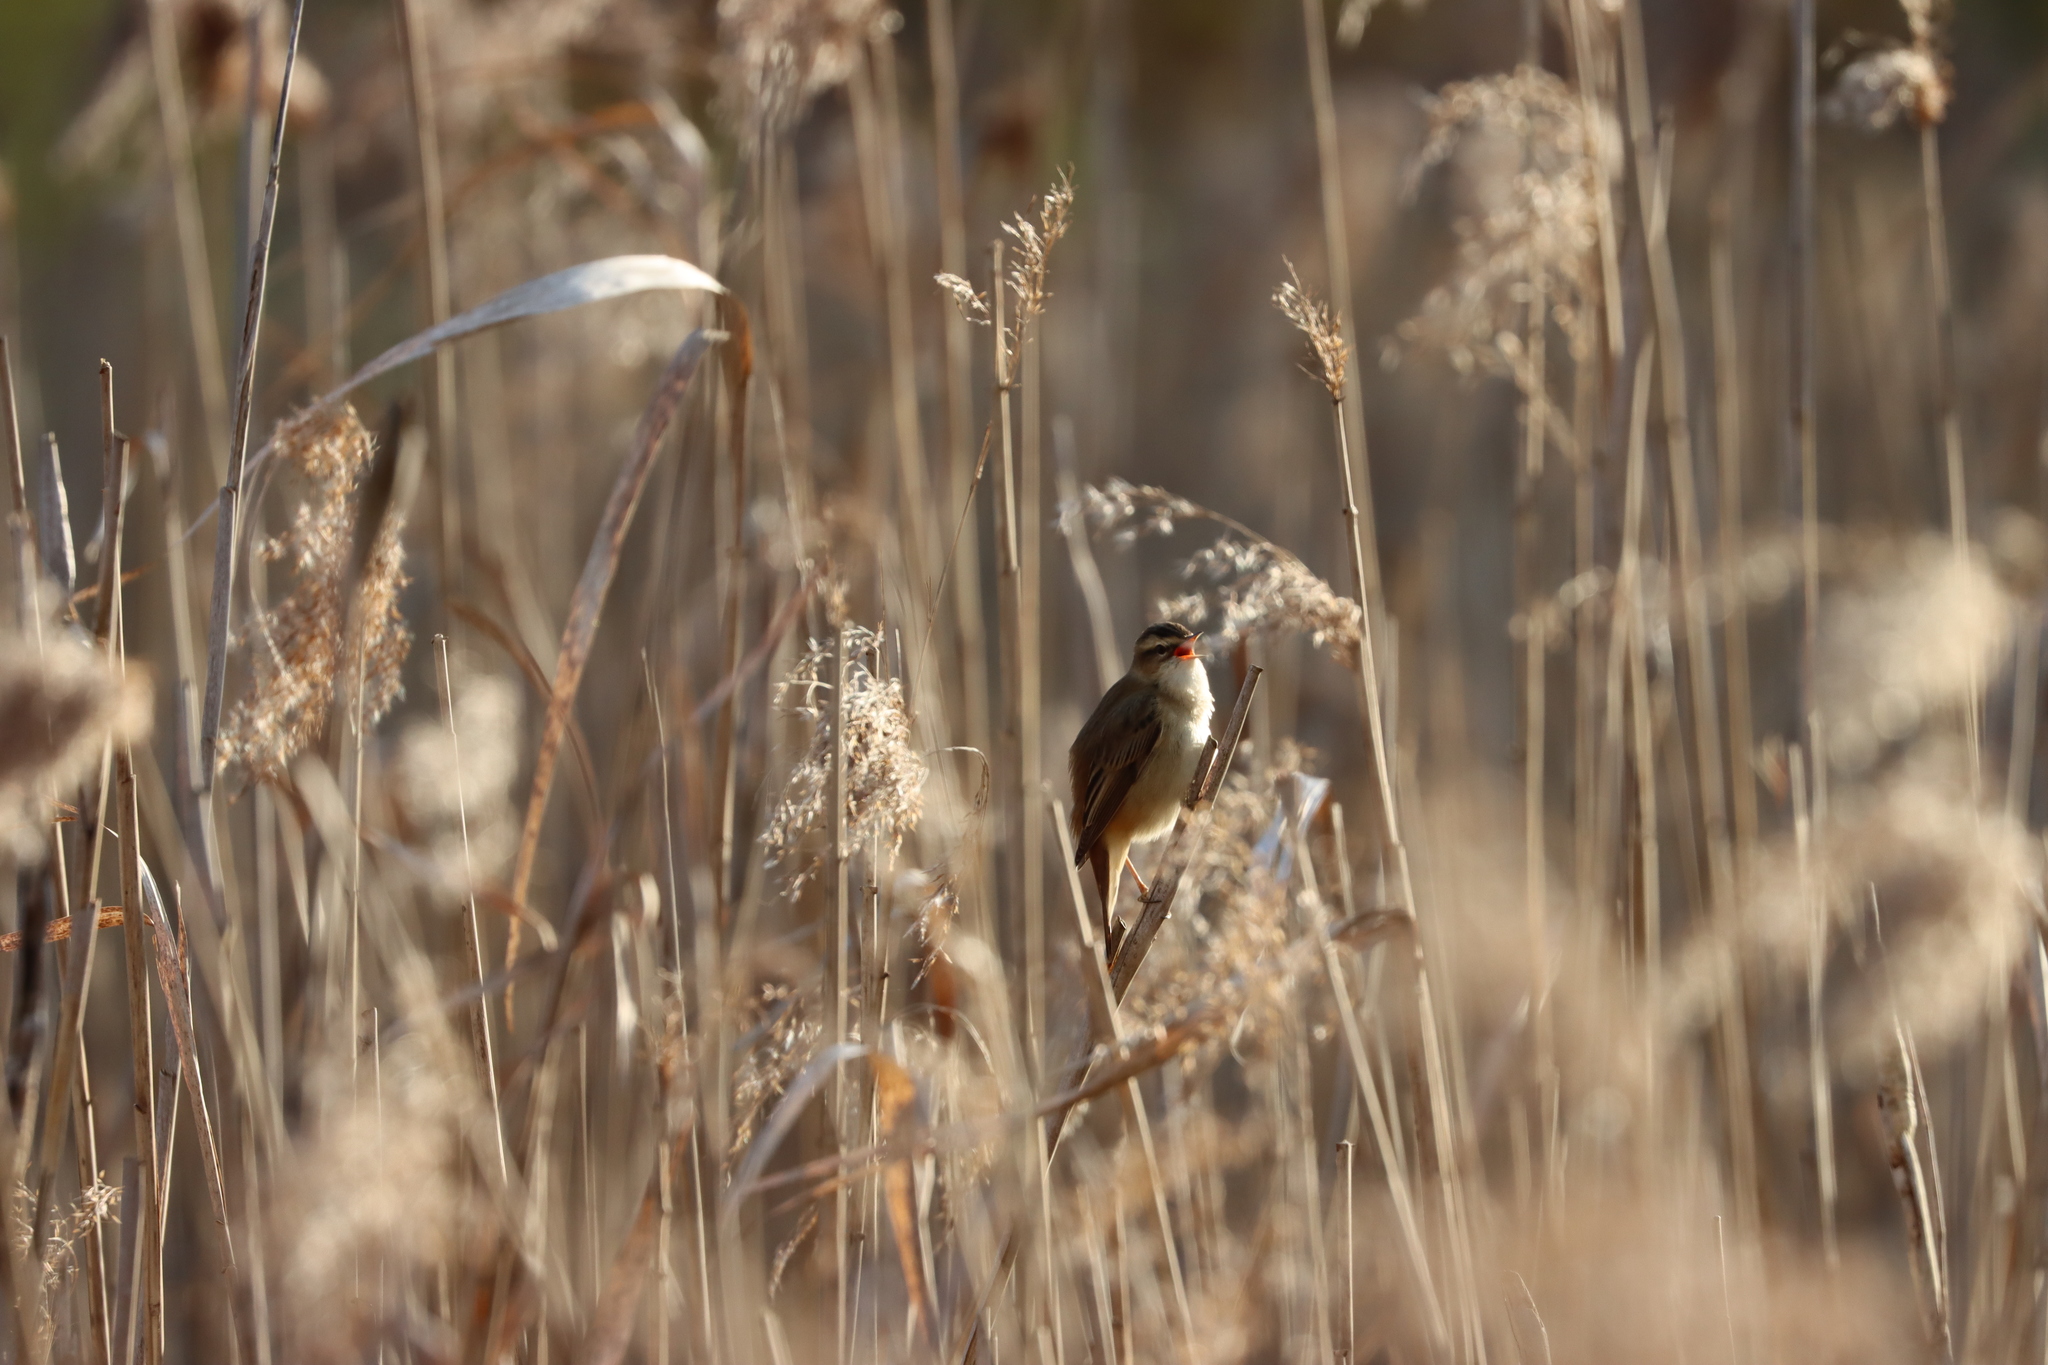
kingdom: Animalia
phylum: Chordata
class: Aves
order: Passeriformes
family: Acrocephalidae
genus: Acrocephalus
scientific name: Acrocephalus schoenobaenus
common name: Sedge warbler
